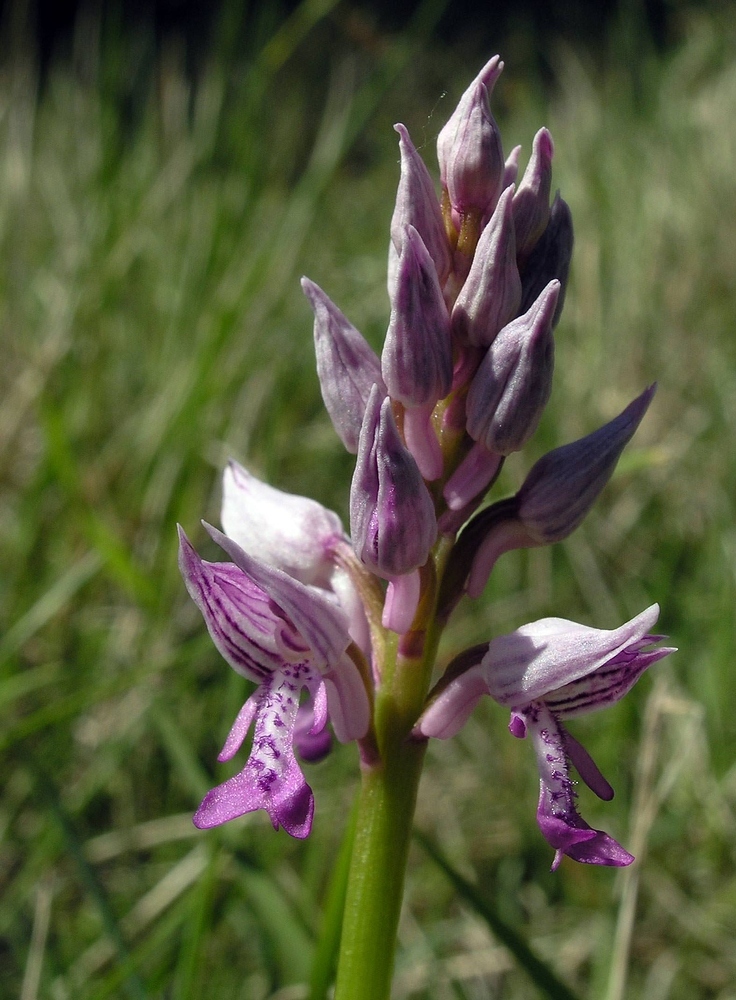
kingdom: Plantae
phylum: Tracheophyta
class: Liliopsida
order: Asparagales
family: Orchidaceae
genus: Orchis
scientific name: Orchis militaris
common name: Military orchid
